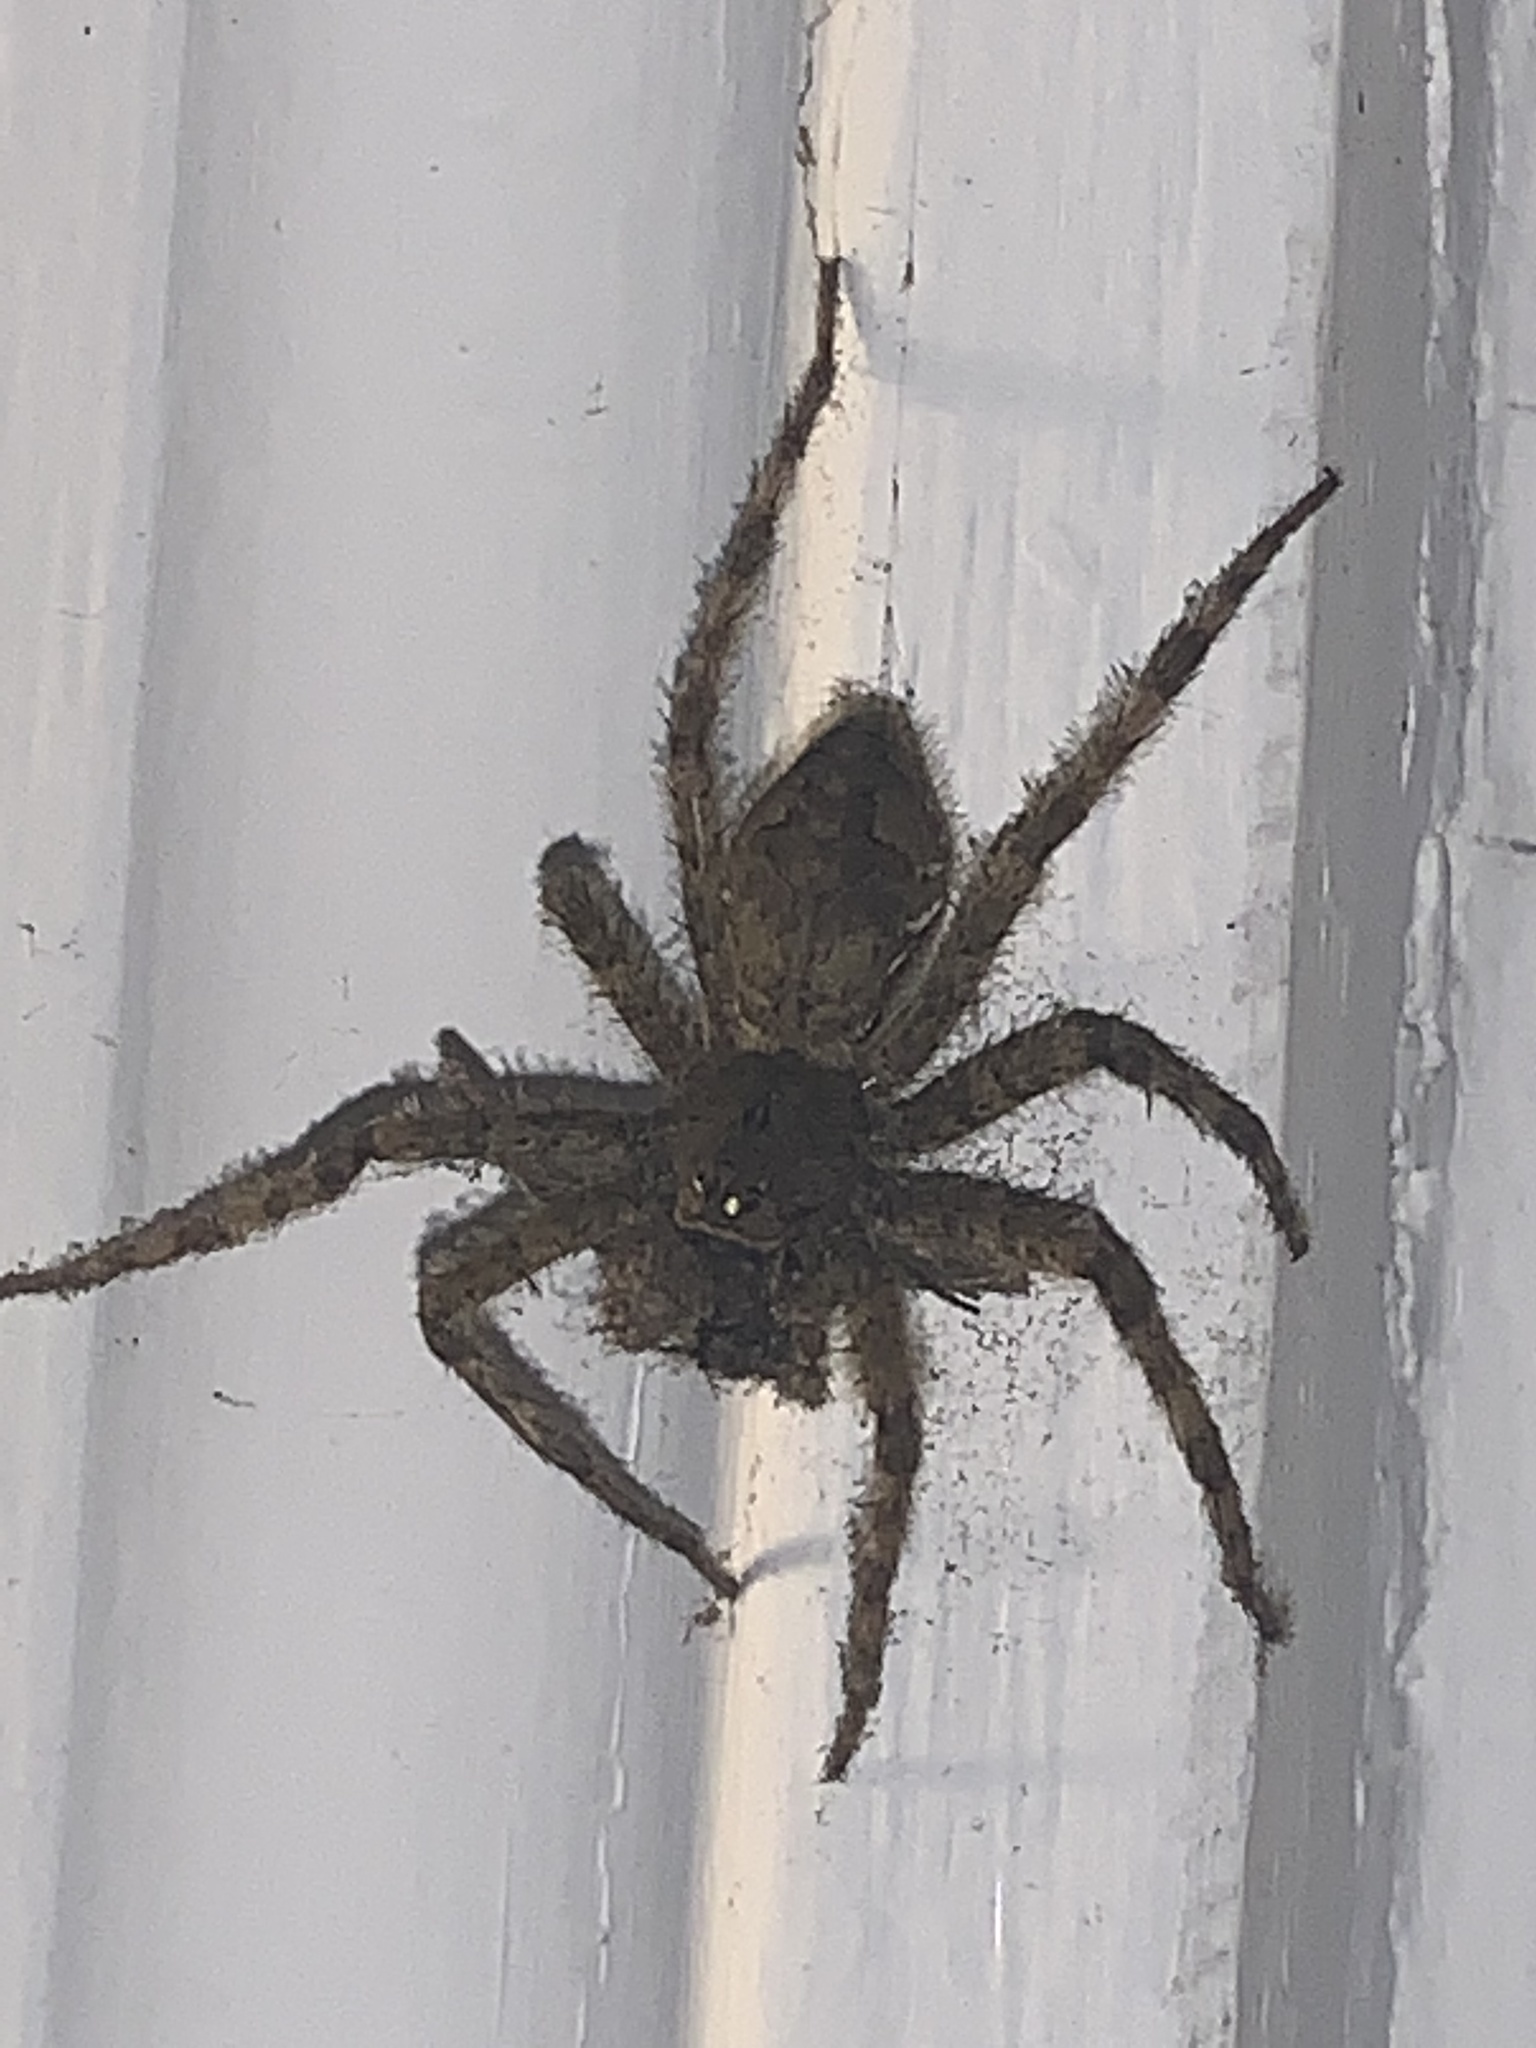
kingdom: Animalia
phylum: Arthropoda
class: Arachnida
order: Araneae
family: Pisauridae
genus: Dolomedes
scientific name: Dolomedes albineus
